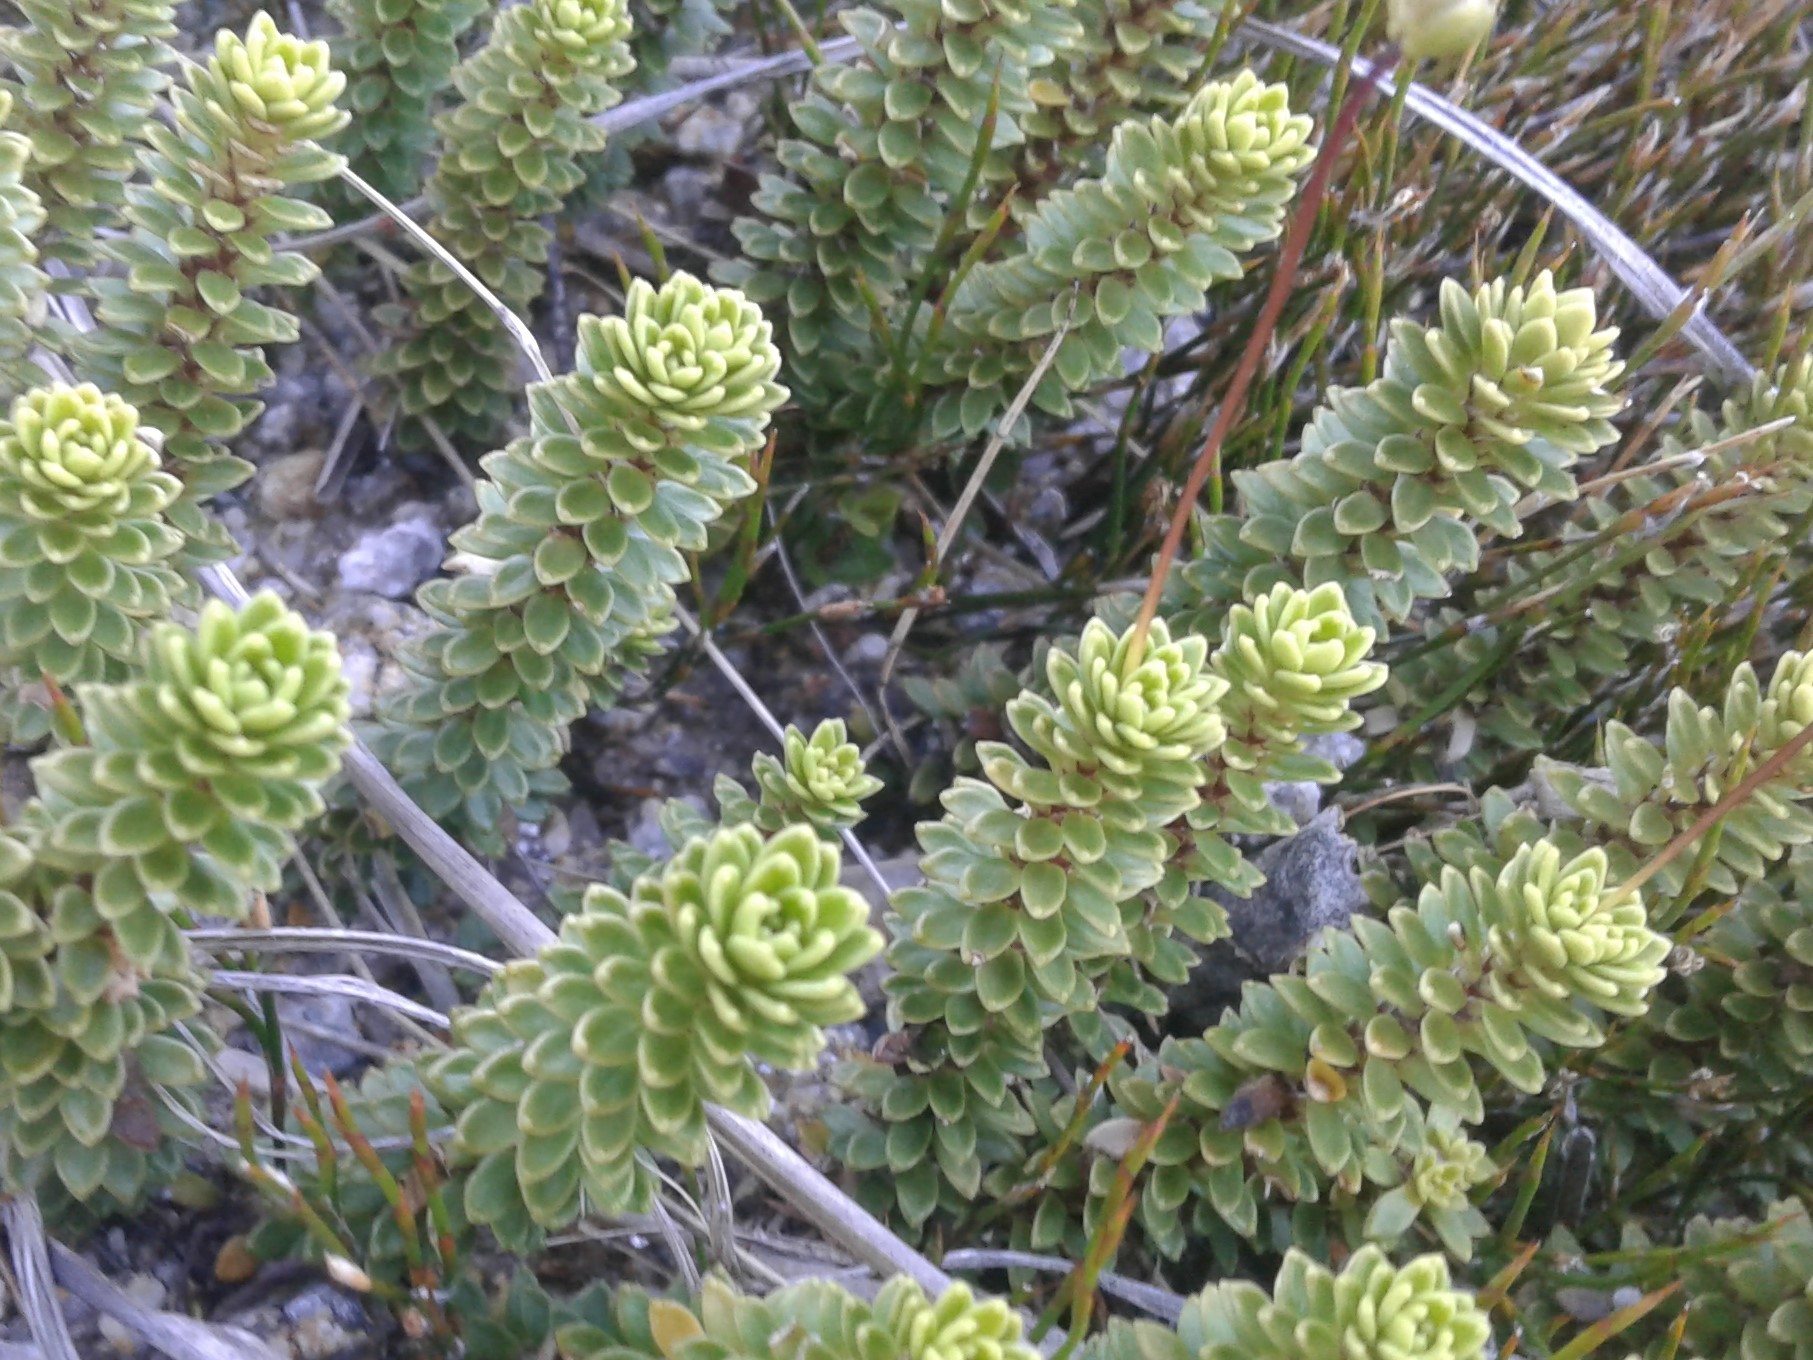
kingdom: Plantae
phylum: Tracheophyta
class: Magnoliopsida
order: Asterales
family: Stylidiaceae
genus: Forstera
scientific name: Forstera mackayi
